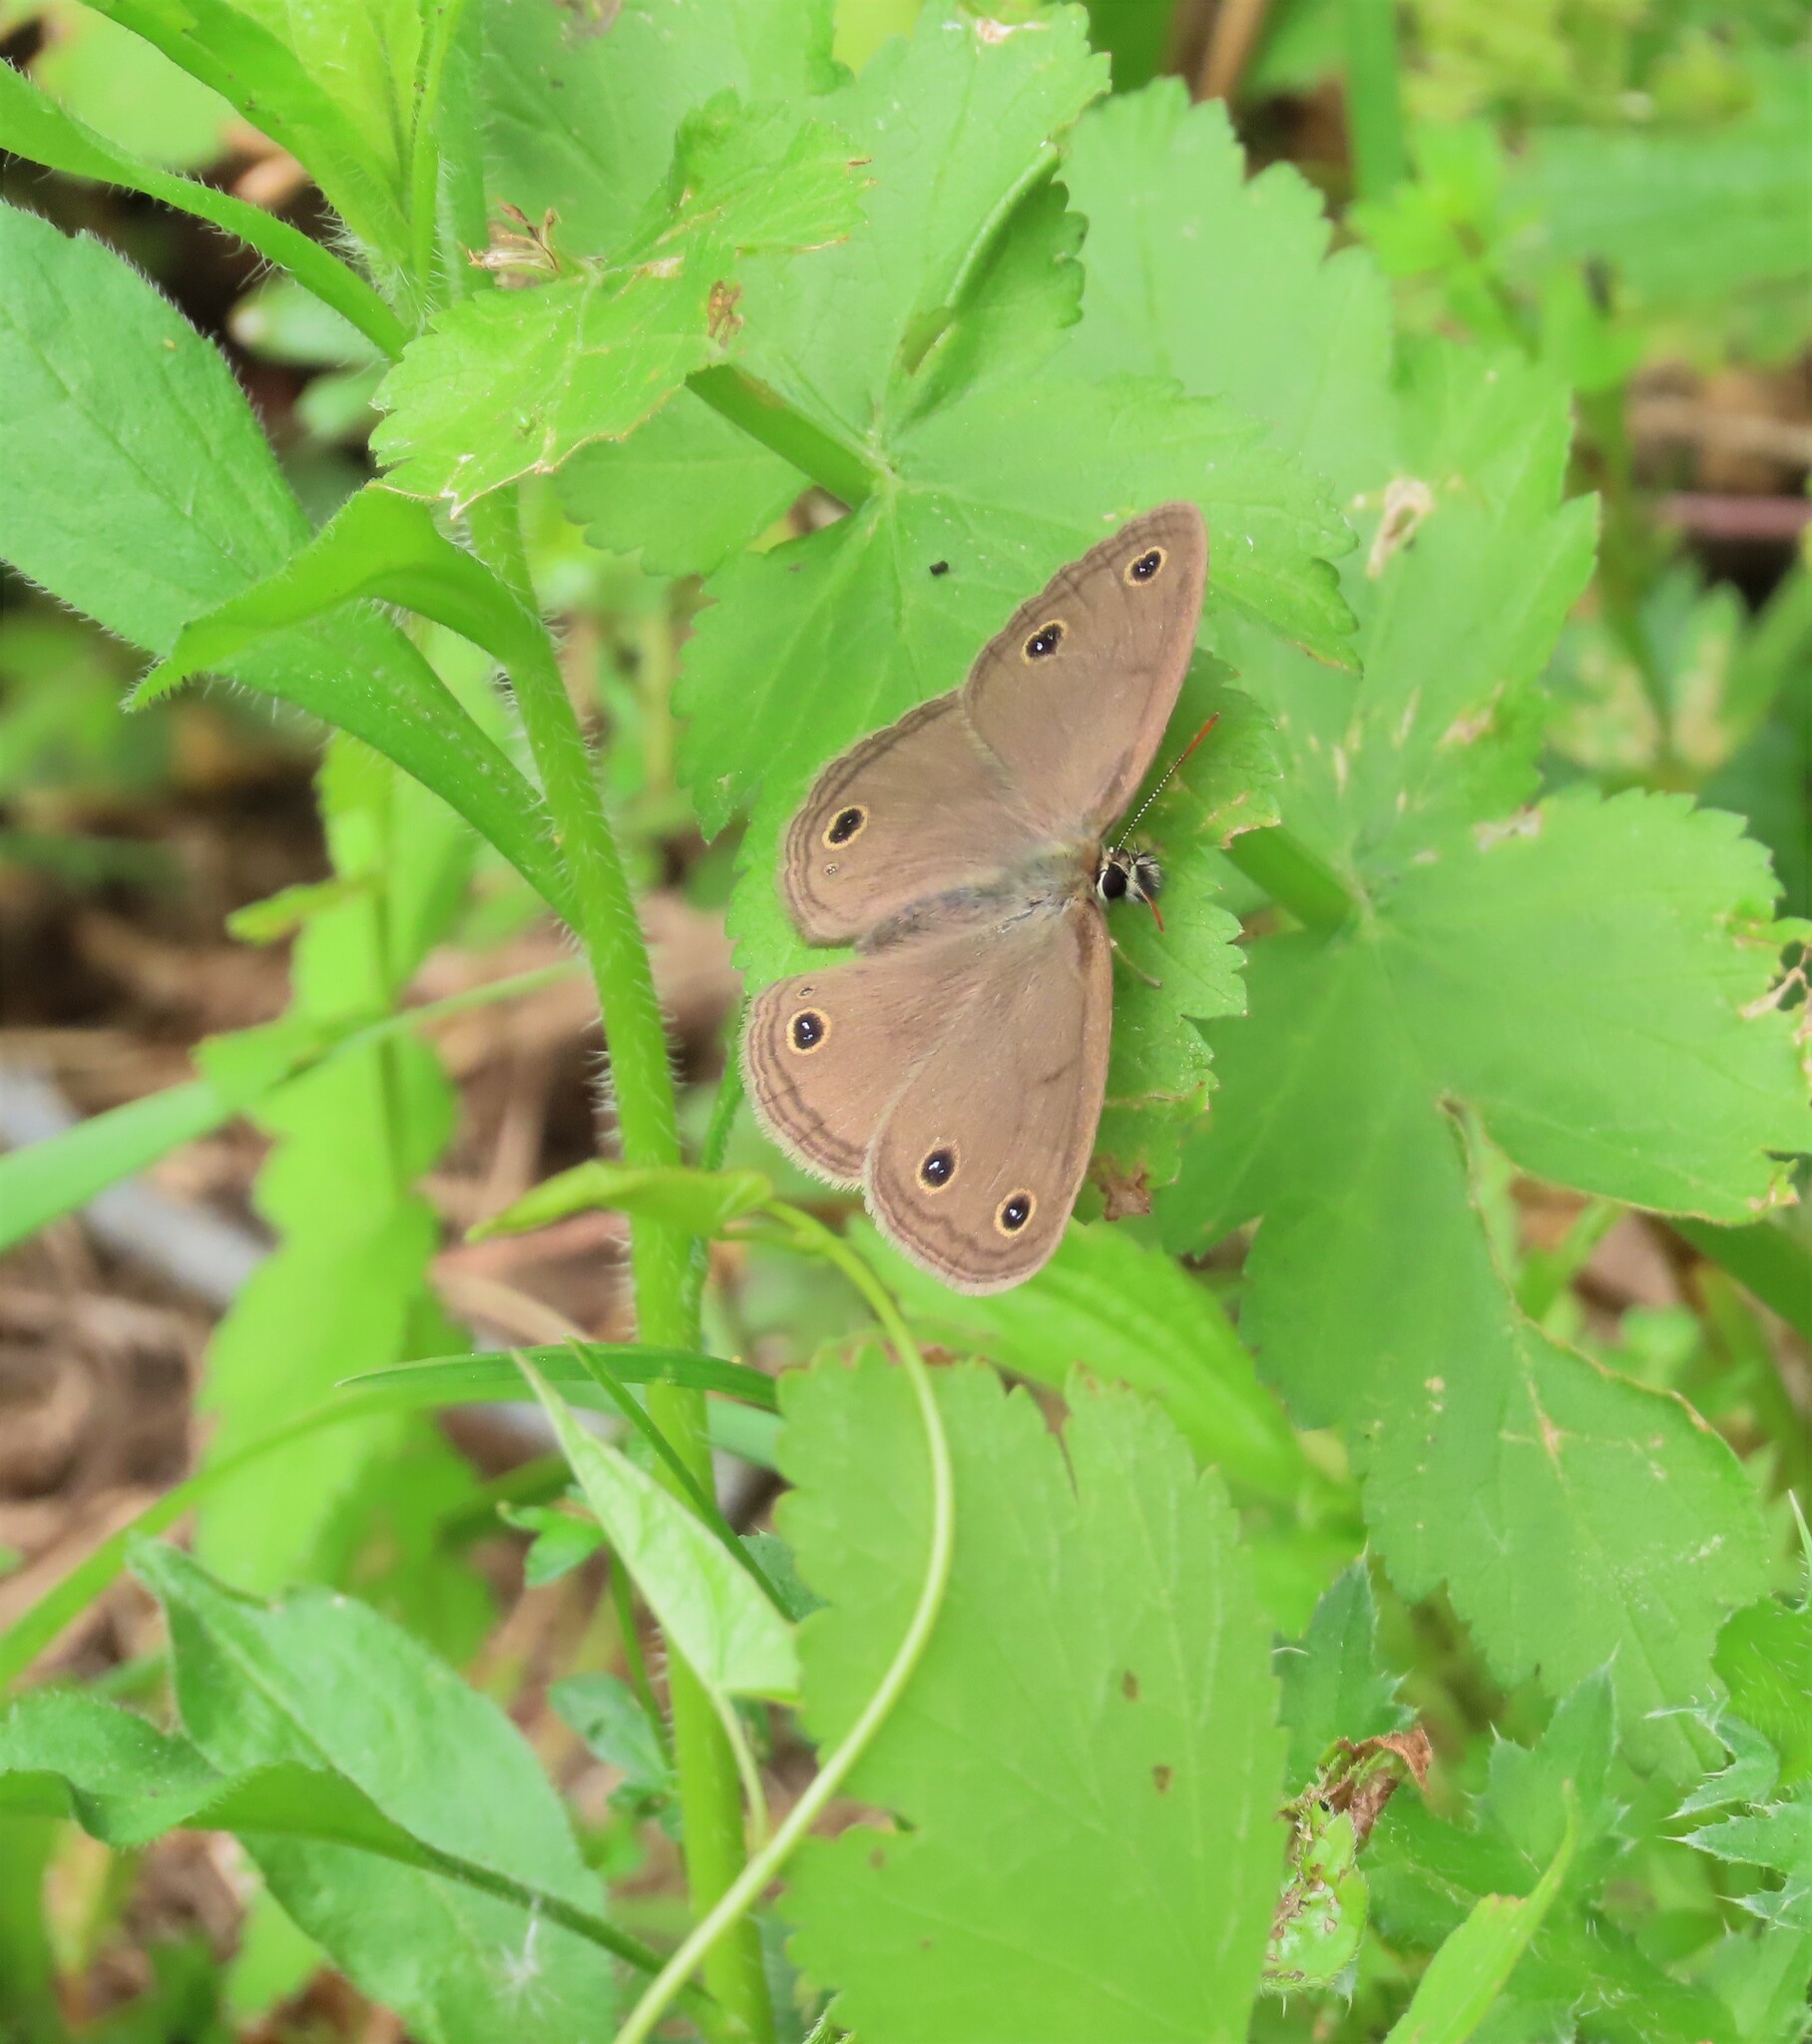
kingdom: Animalia
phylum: Arthropoda
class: Insecta
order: Lepidoptera
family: Nymphalidae
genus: Euptychia
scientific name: Euptychia cymela
